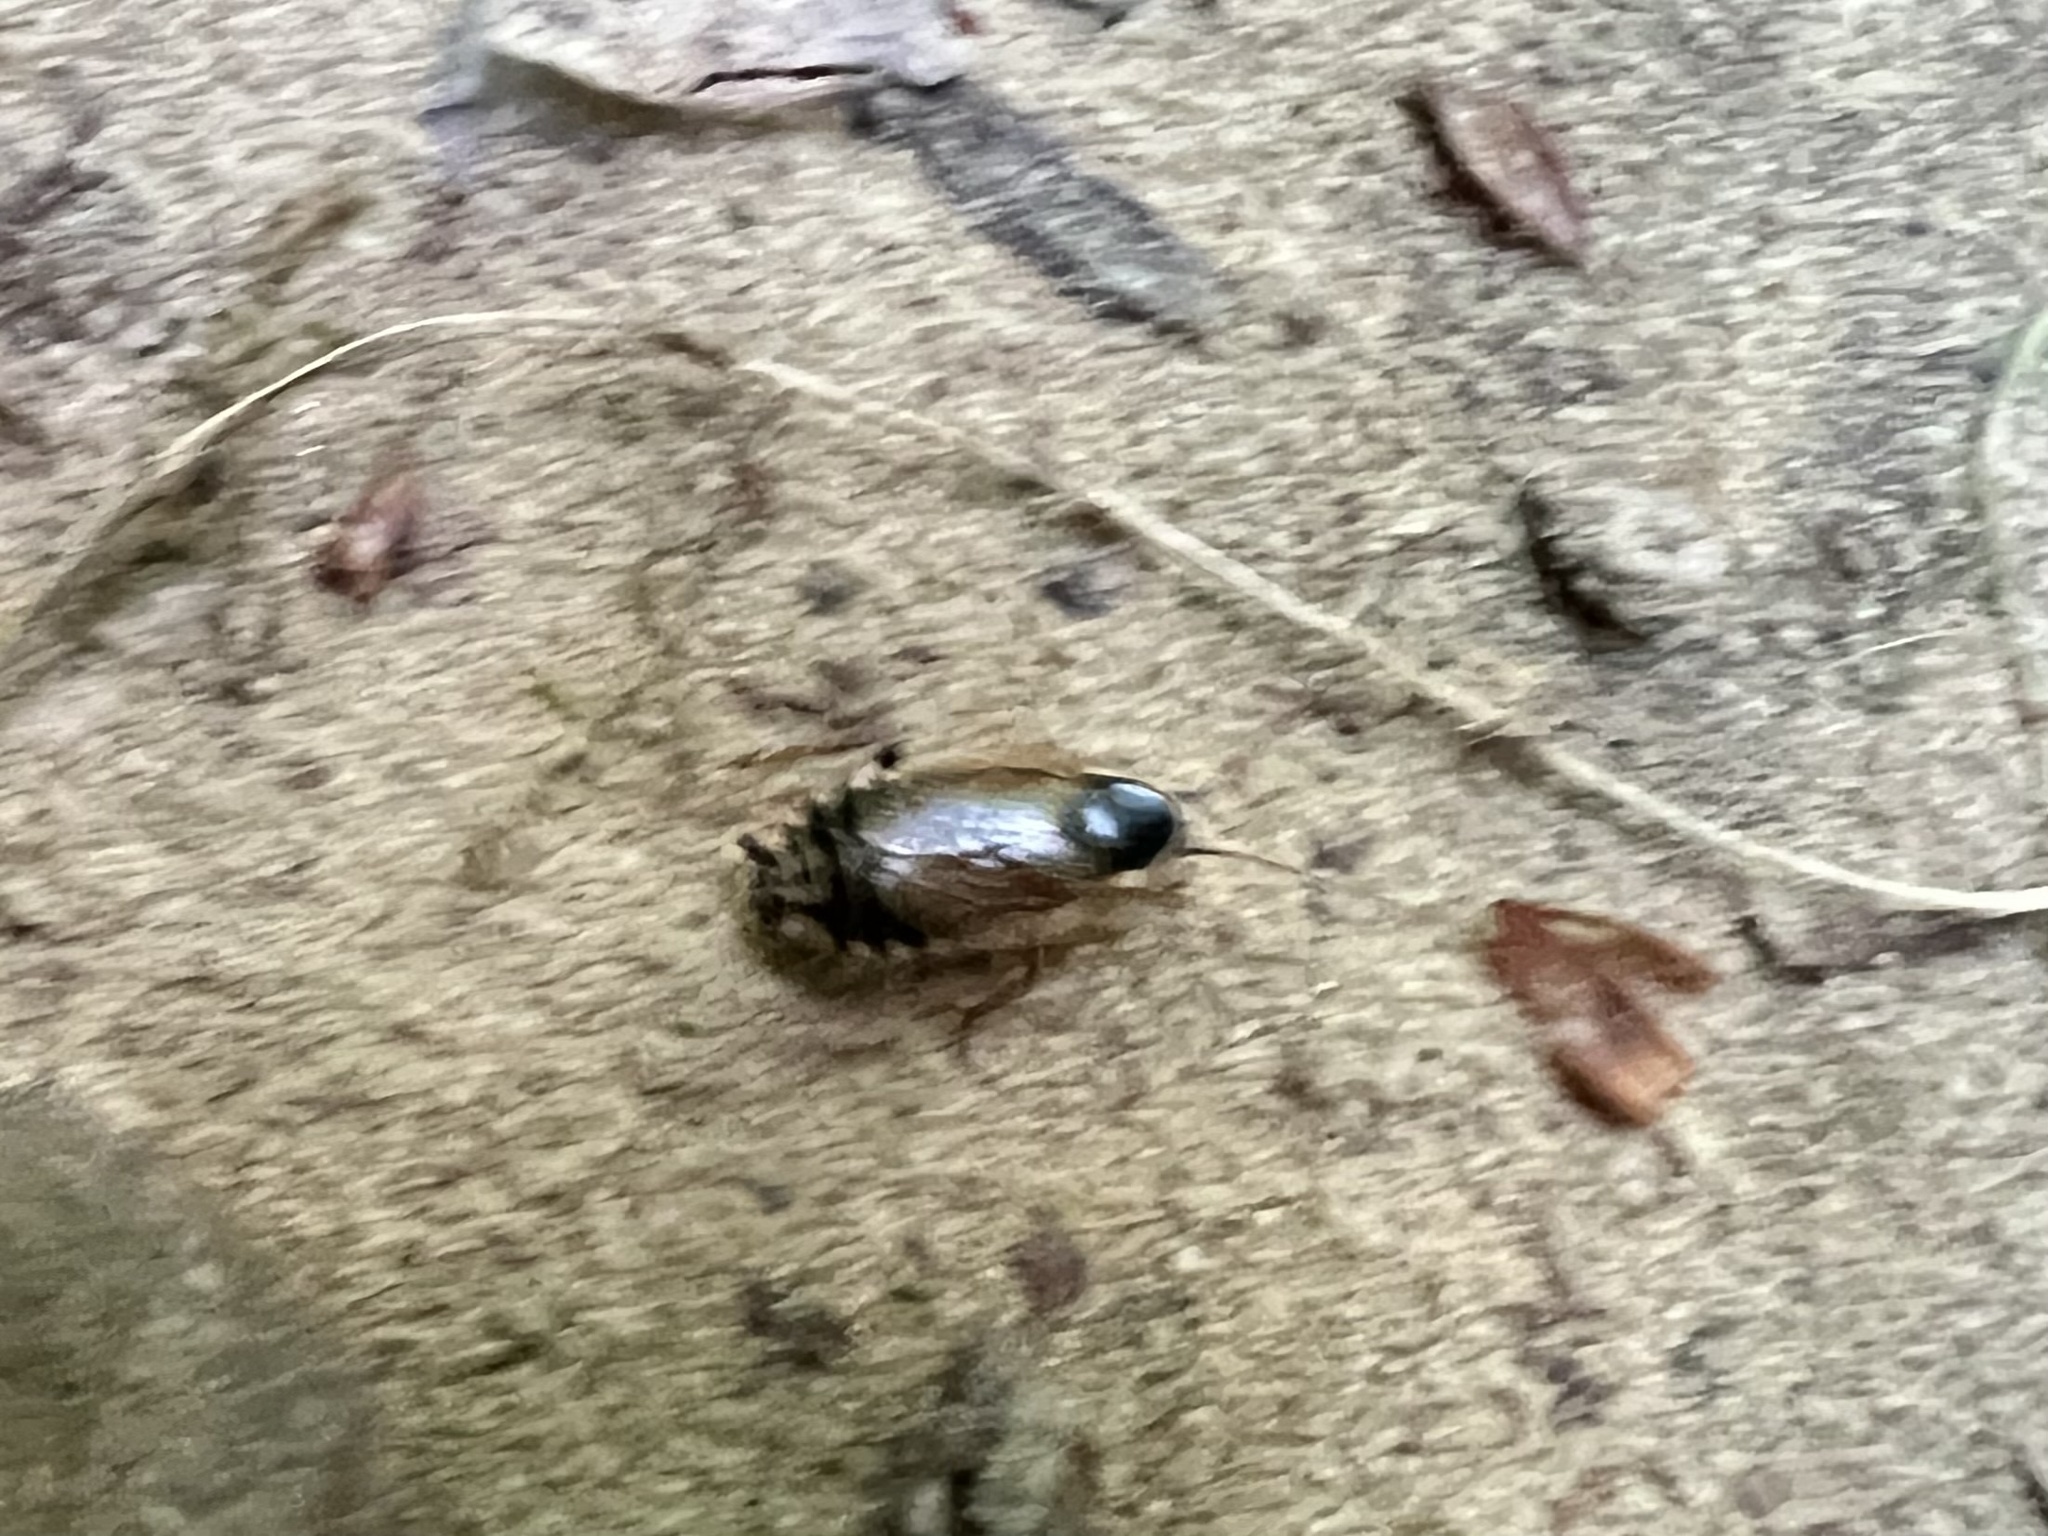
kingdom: Animalia
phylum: Arthropoda
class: Insecta
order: Blattodea
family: Ectobiidae
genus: Ectobius
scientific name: Ectobius sylvestris
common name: Forest cockroach
